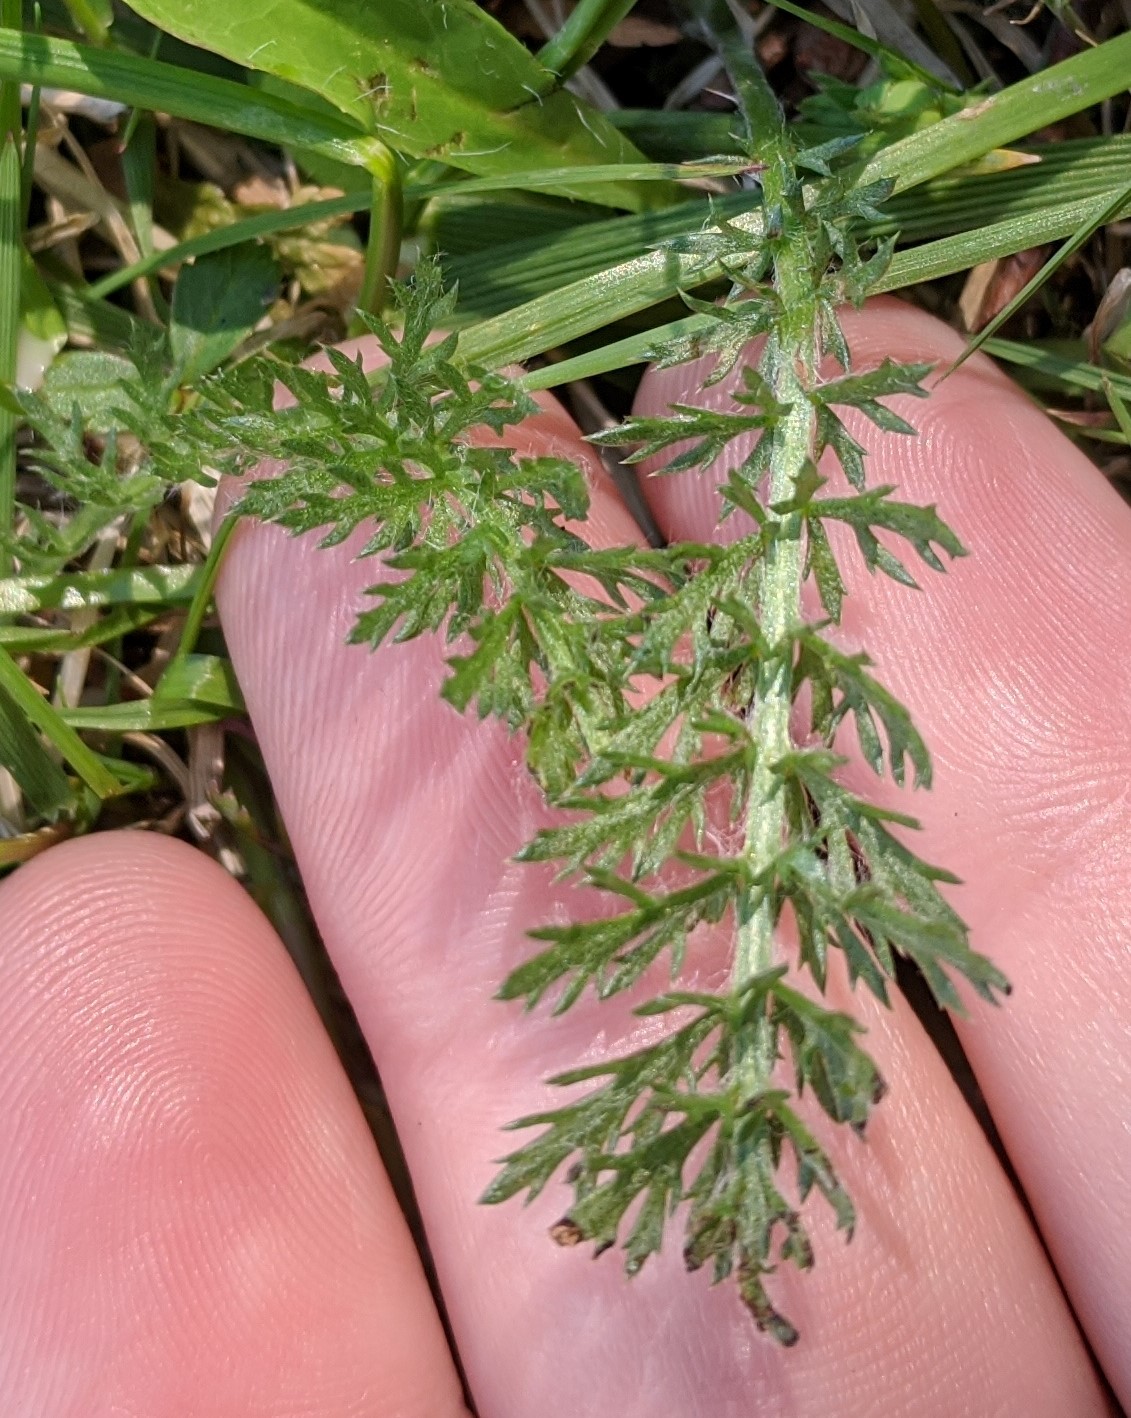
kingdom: Plantae
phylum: Tracheophyta
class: Magnoliopsida
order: Asterales
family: Asteraceae
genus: Achillea
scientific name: Achillea millefolium
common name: Yarrow
